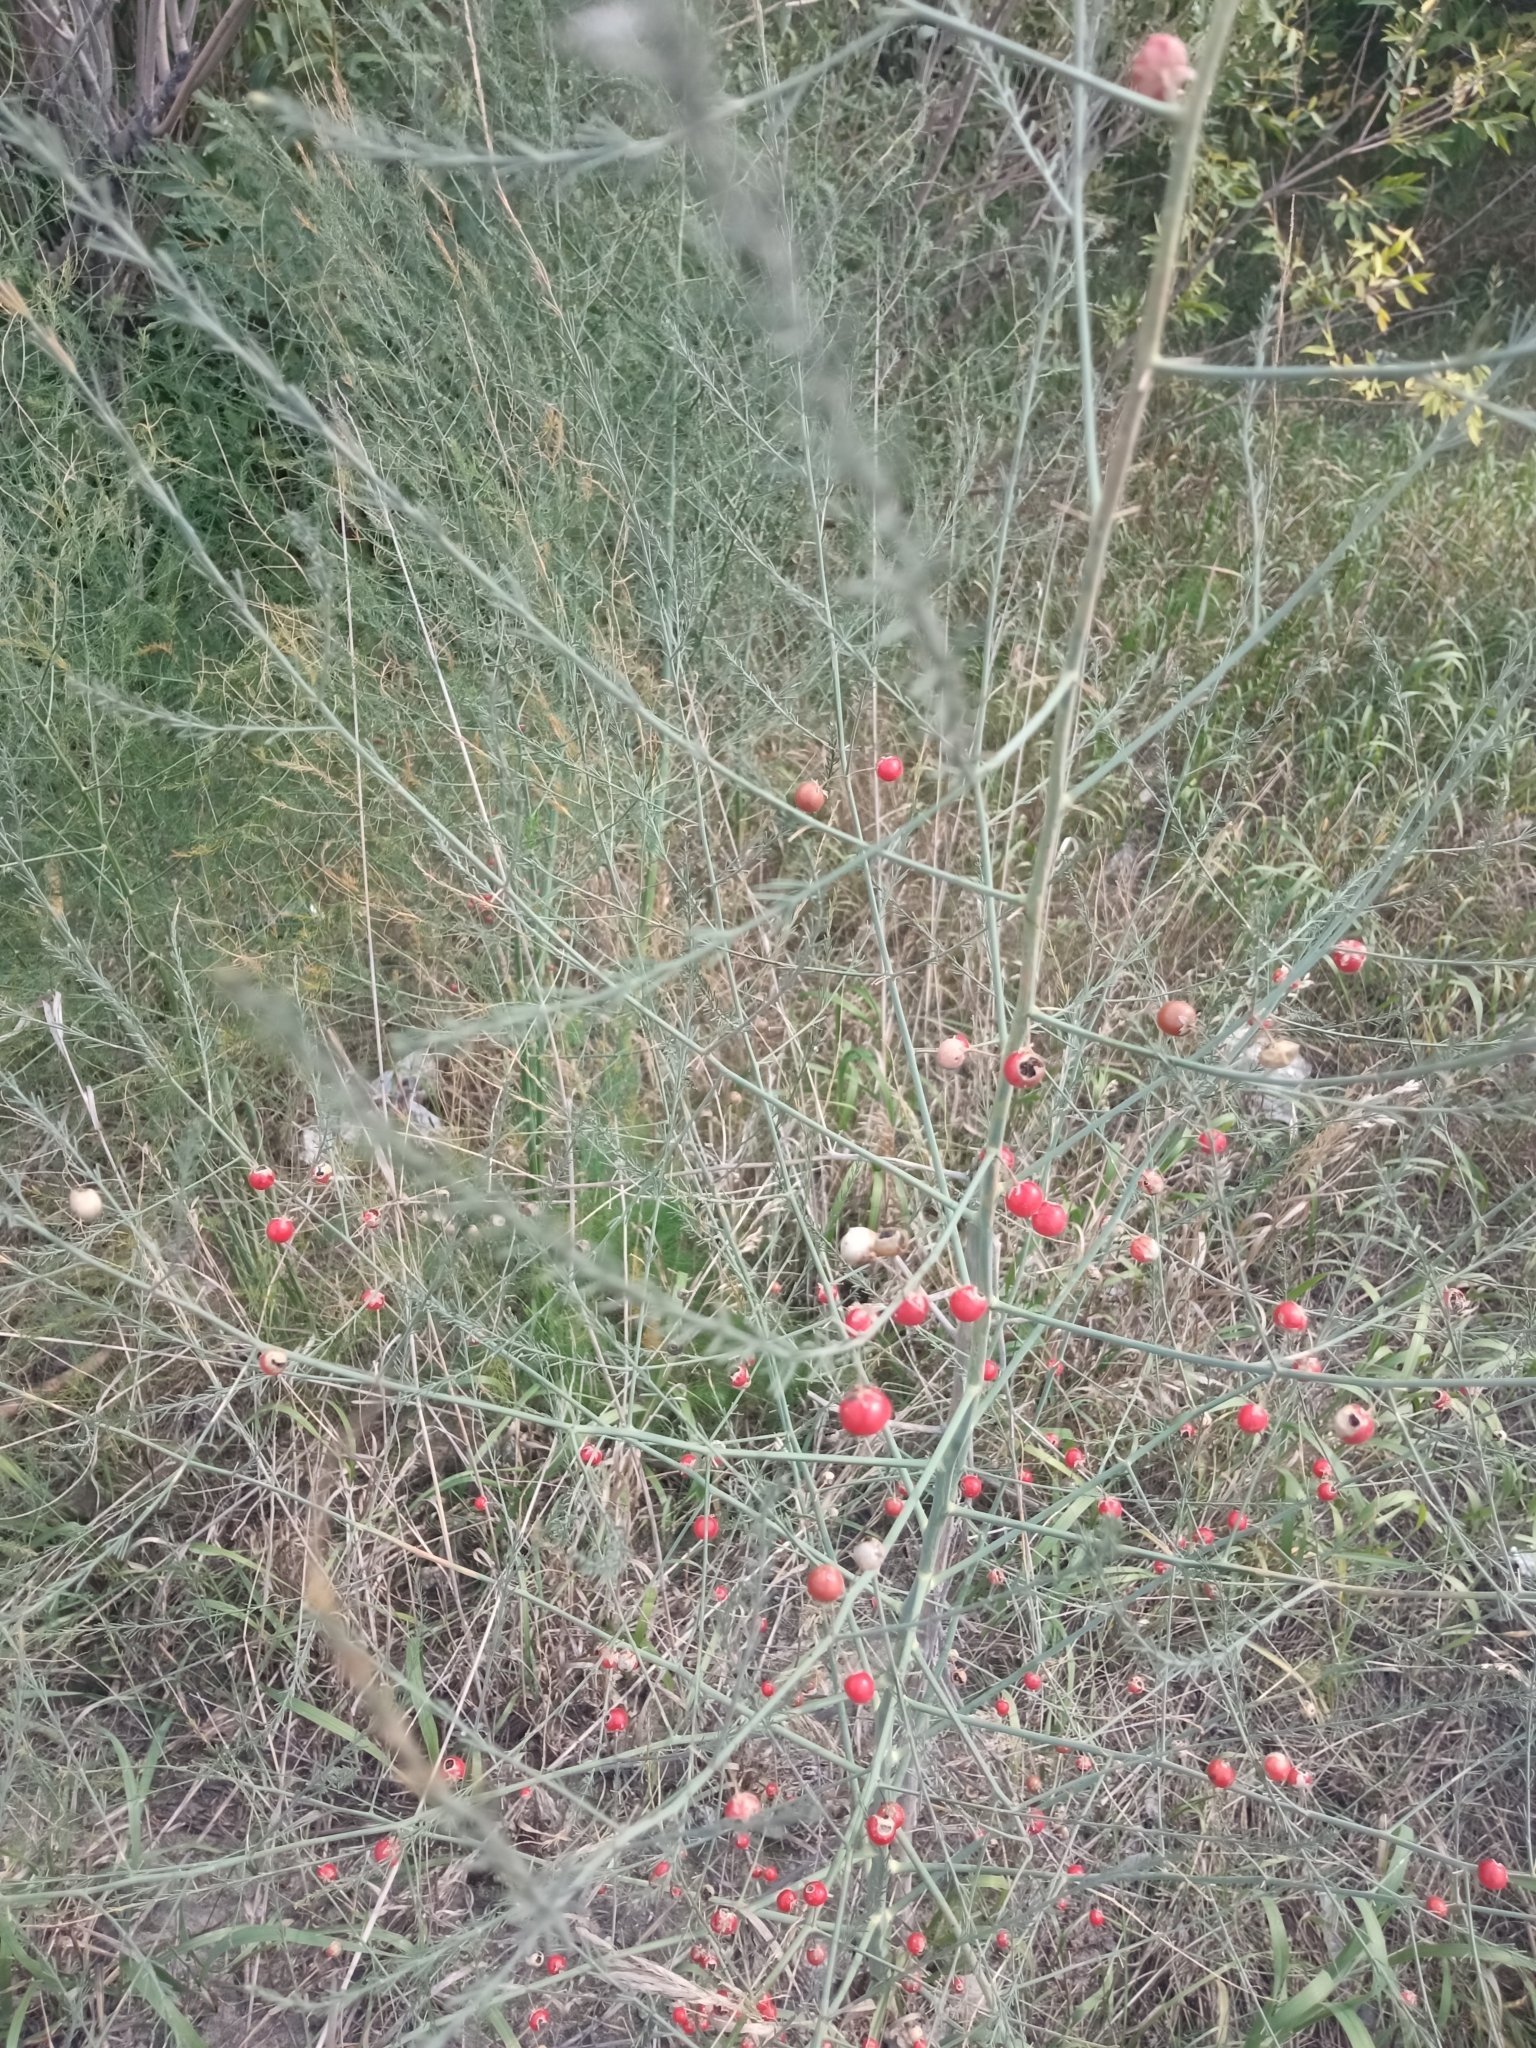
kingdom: Plantae
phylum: Tracheophyta
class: Liliopsida
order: Asparagales
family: Asparagaceae
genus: Asparagus
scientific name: Asparagus officinalis
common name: Garden asparagus
